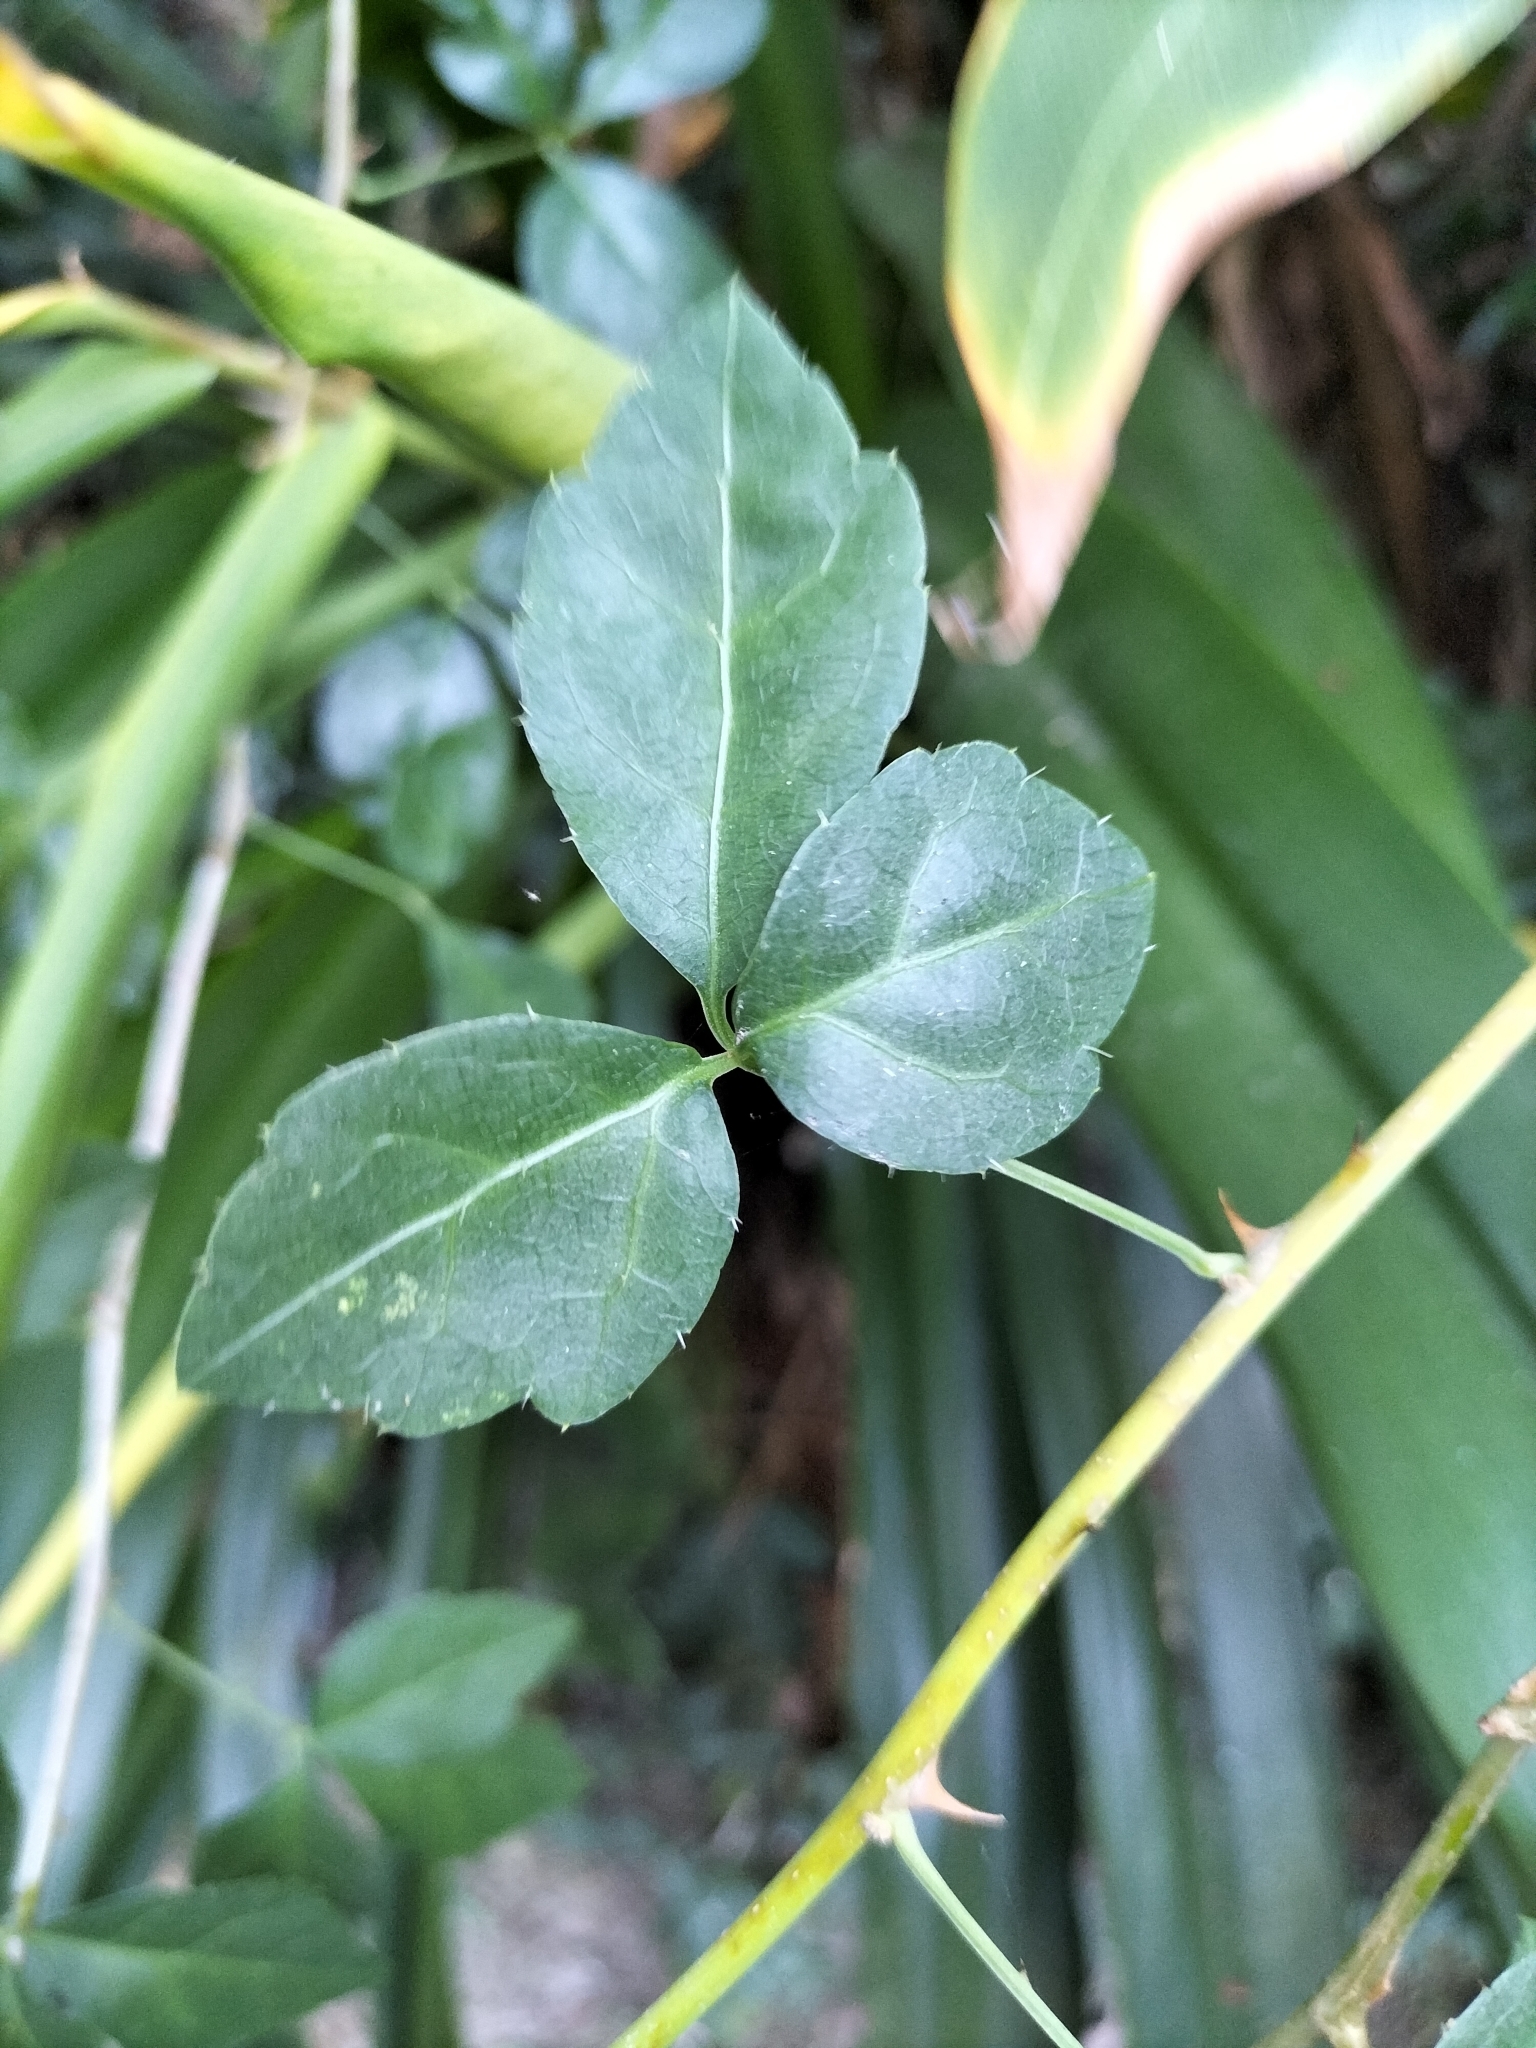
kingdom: Plantae
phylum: Tracheophyta
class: Magnoliopsida
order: Apiales
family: Araliaceae
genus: Eleutherococcus
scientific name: Eleutherococcus trifoliatus
